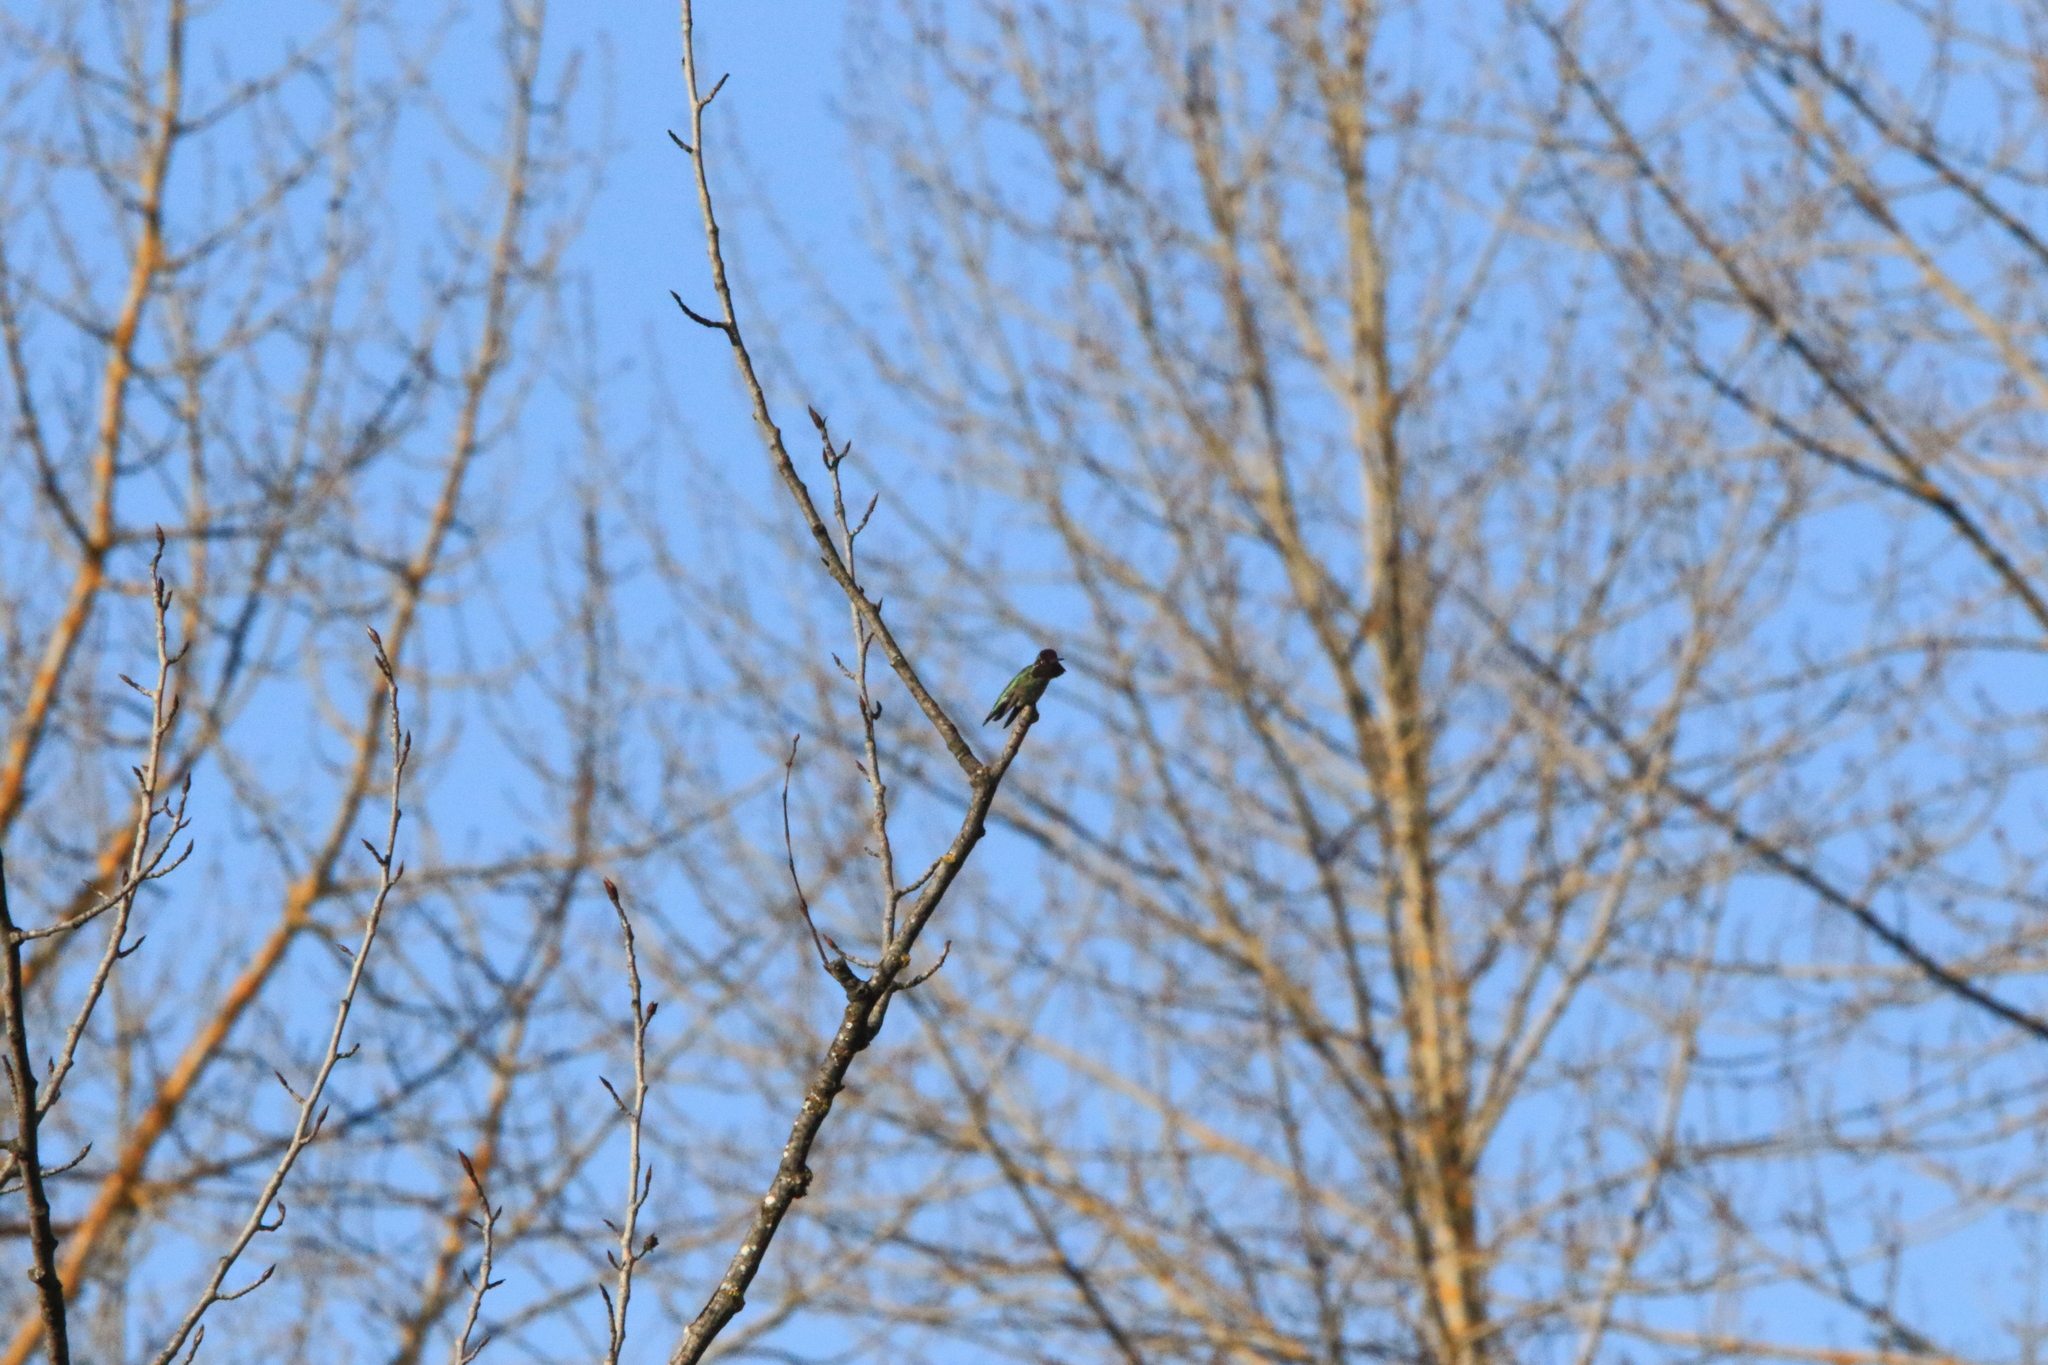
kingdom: Animalia
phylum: Chordata
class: Aves
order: Apodiformes
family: Trochilidae
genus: Calypte
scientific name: Calypte anna
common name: Anna's hummingbird
